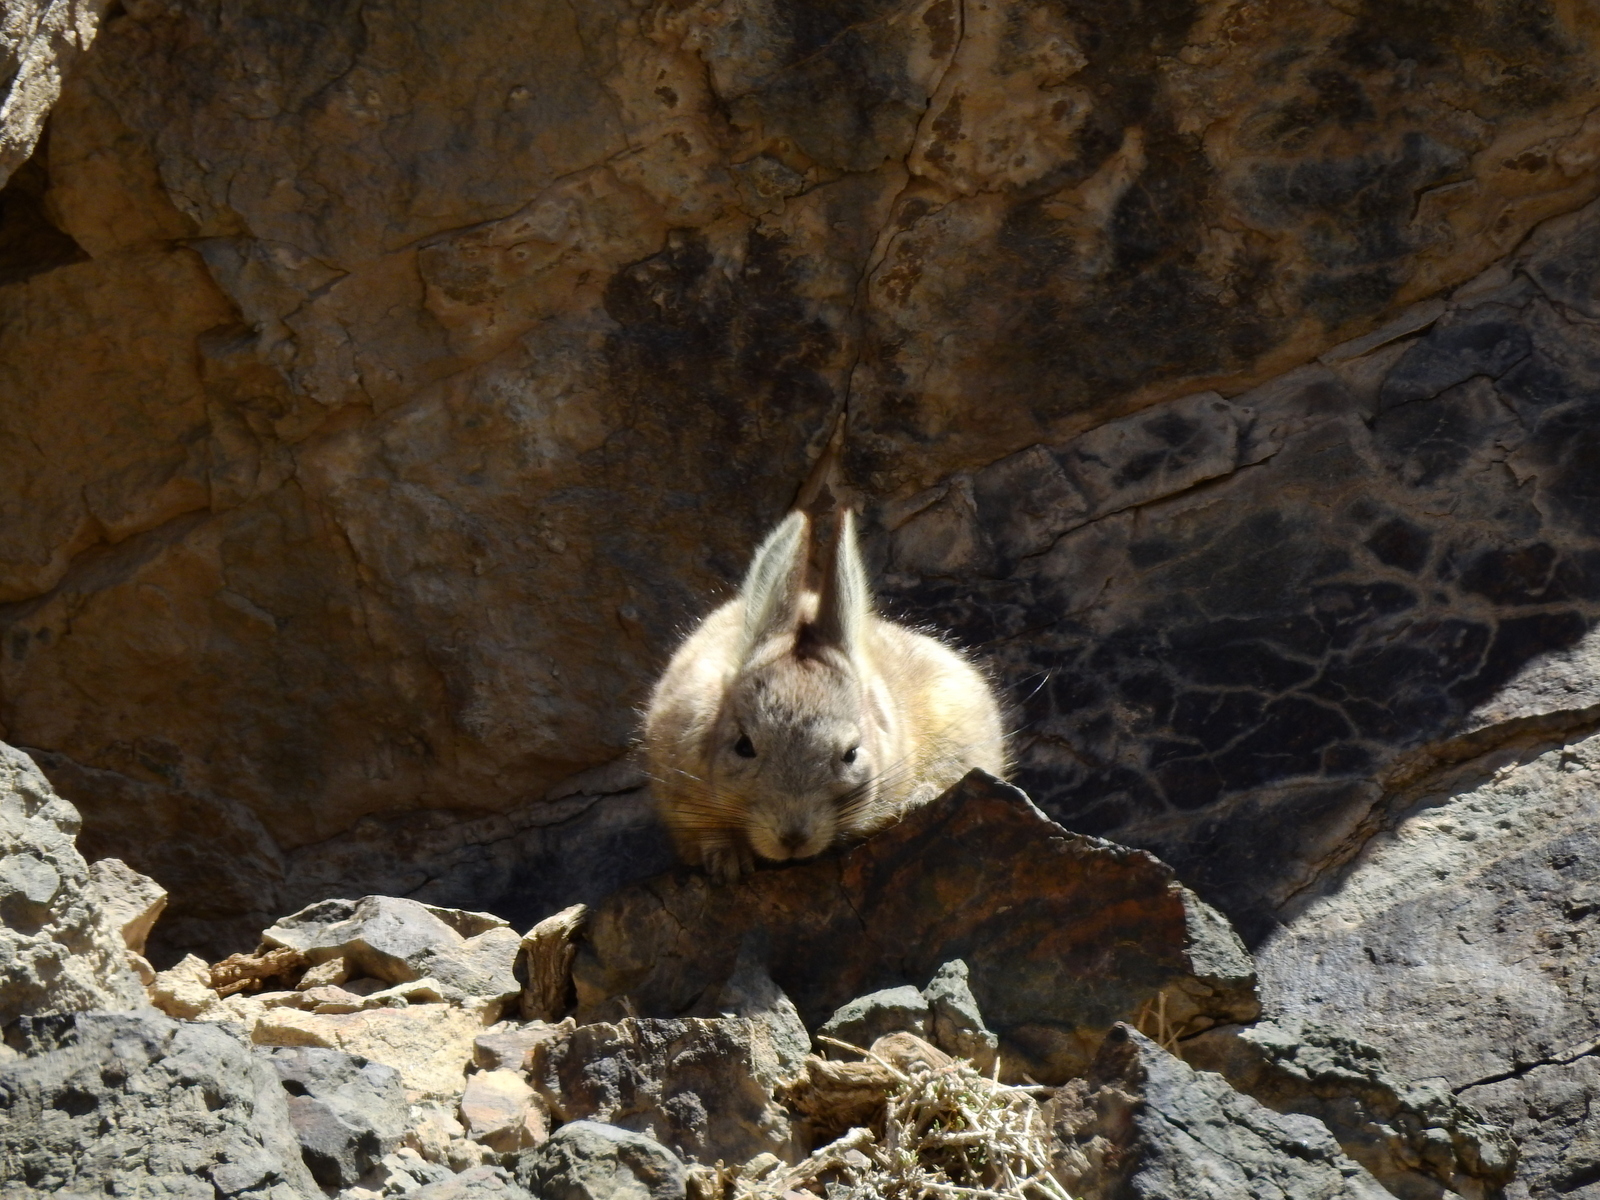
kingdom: Animalia
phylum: Chordata
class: Mammalia
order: Rodentia
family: Chinchillidae
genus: Lagidium
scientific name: Lagidium viscacia
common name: Southern viscacha
